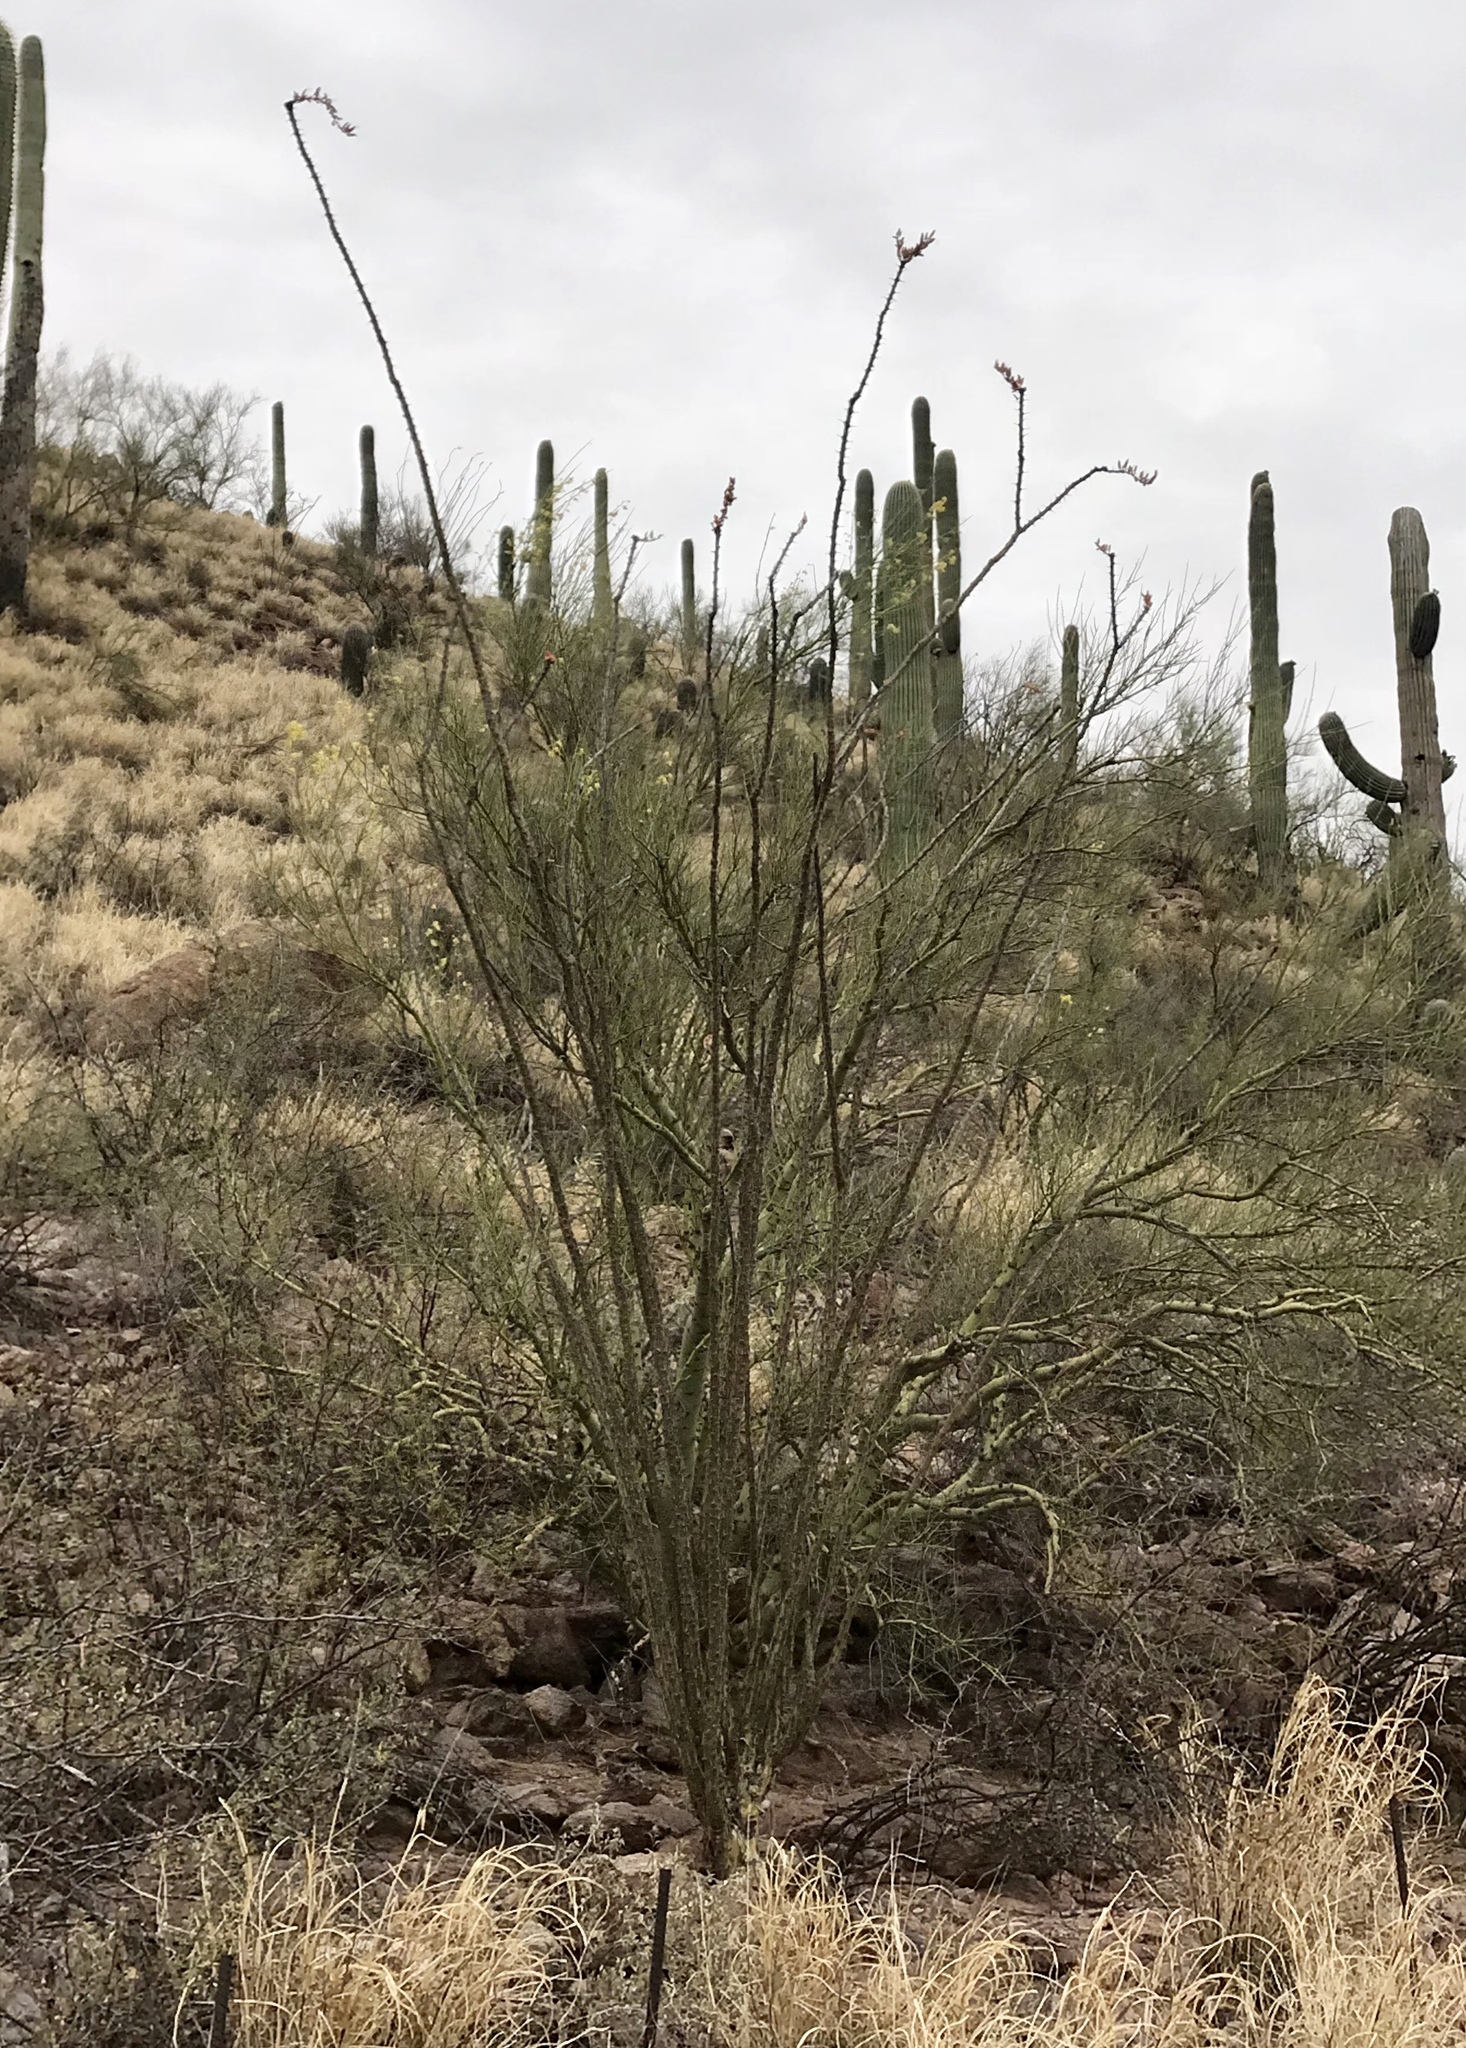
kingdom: Plantae
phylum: Tracheophyta
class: Magnoliopsida
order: Ericales
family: Fouquieriaceae
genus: Fouquieria
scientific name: Fouquieria splendens
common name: Vine-cactus
